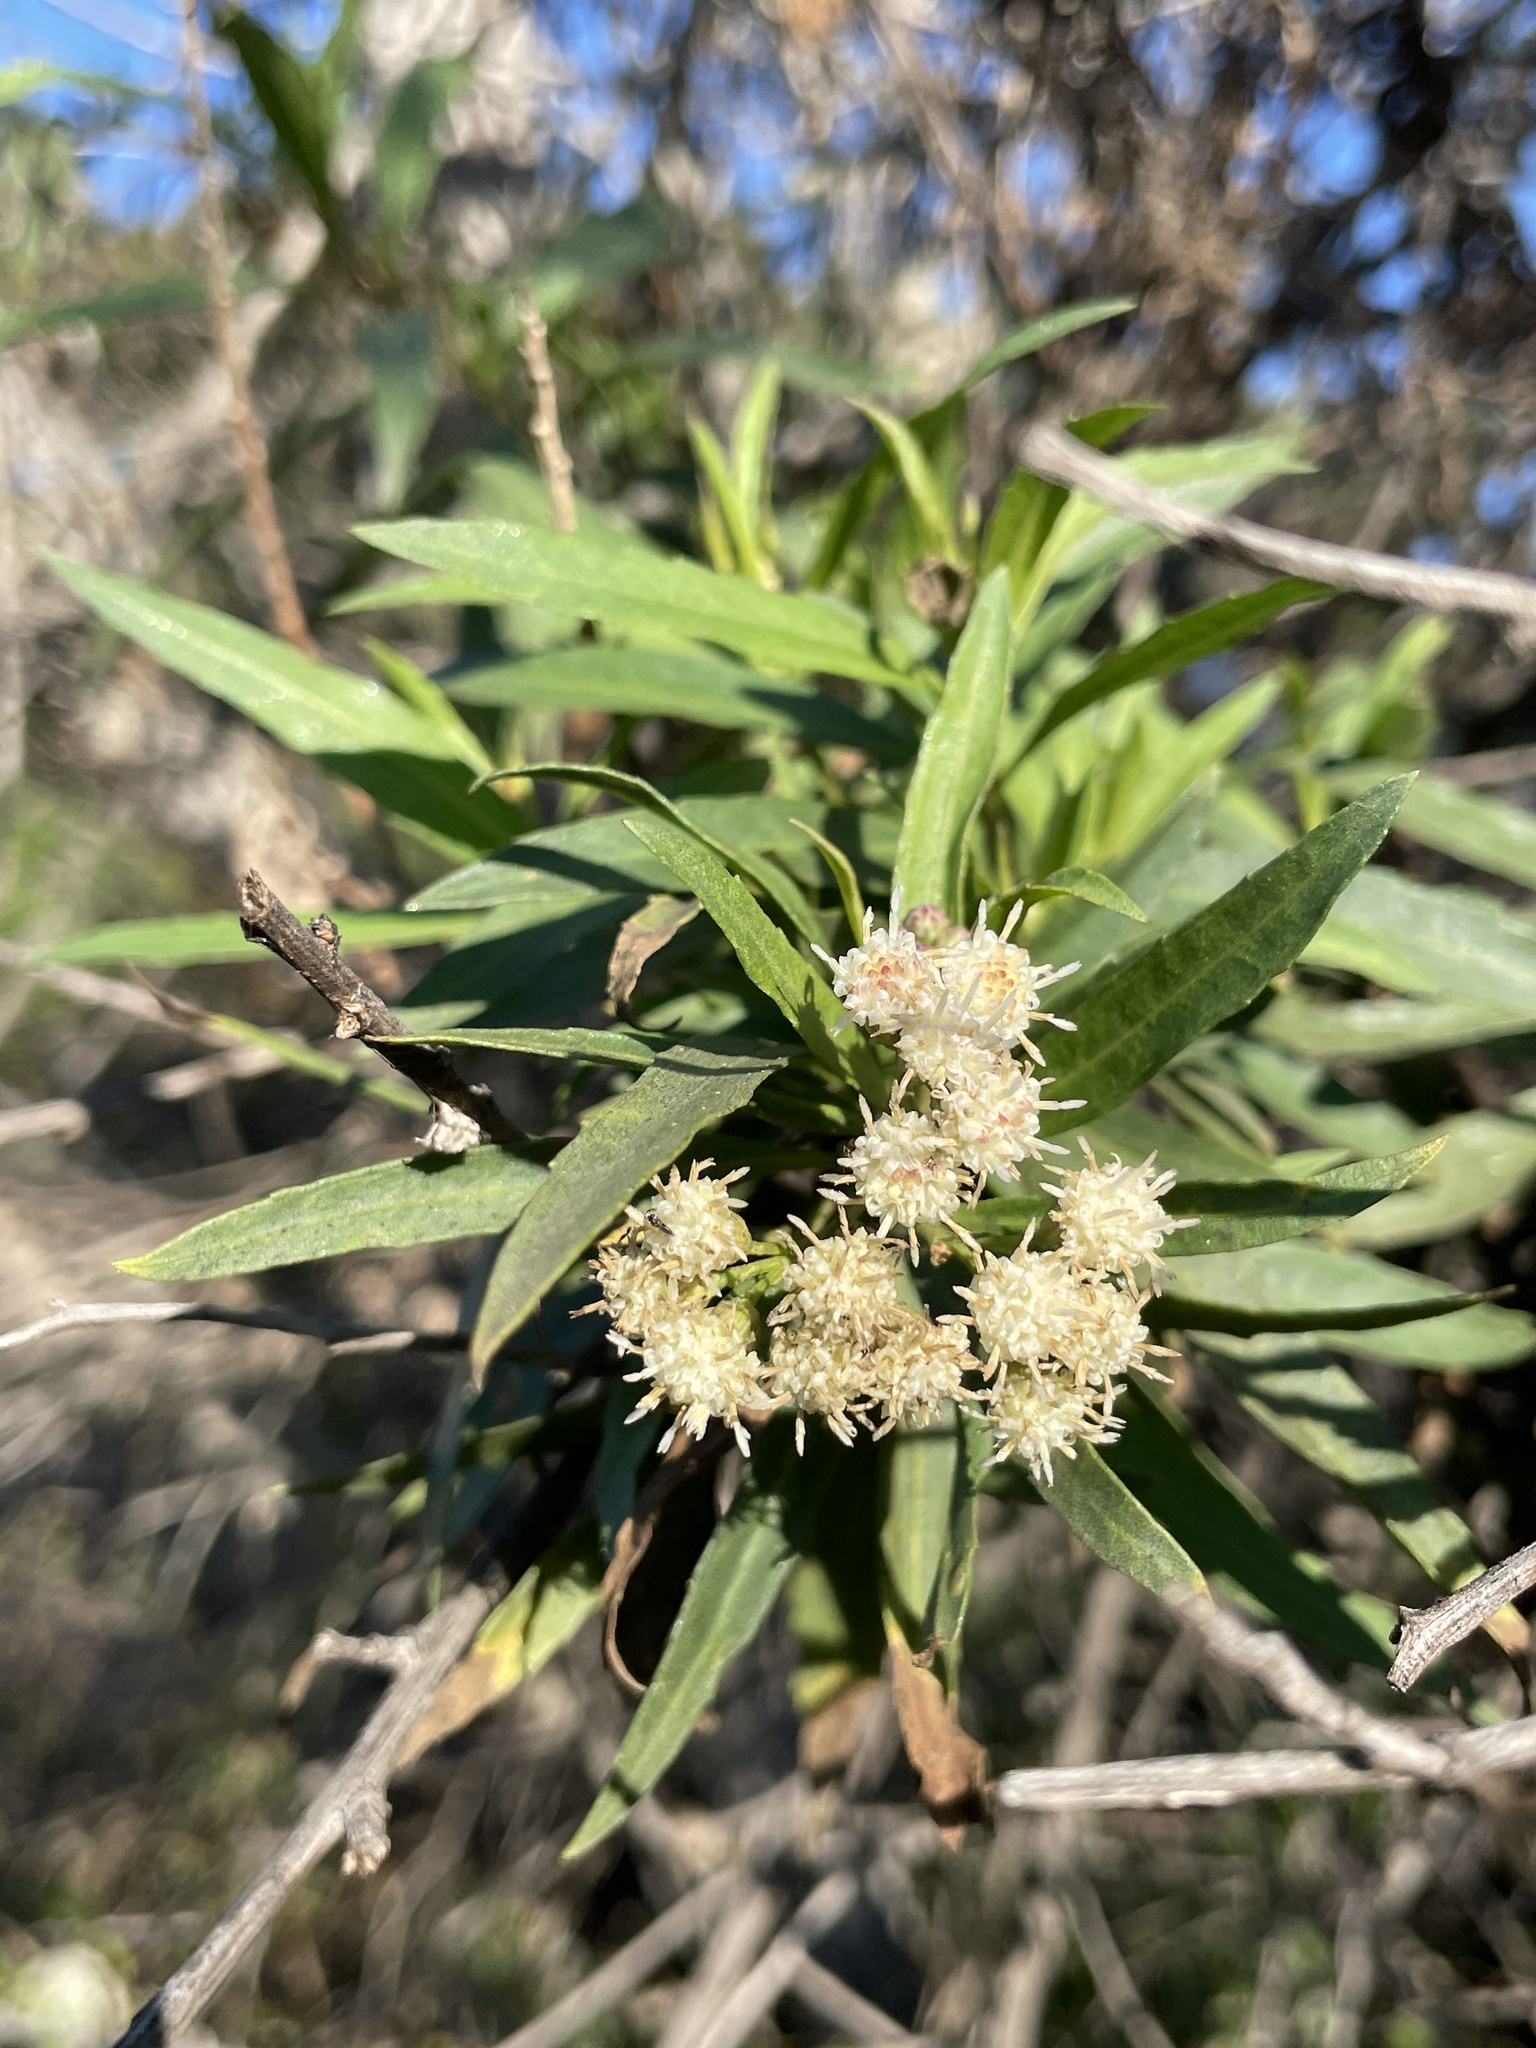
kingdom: Plantae
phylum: Tracheophyta
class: Magnoliopsida
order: Asterales
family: Asteraceae
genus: Baccharis
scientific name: Baccharis salicifolia
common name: Sticky baccharis
